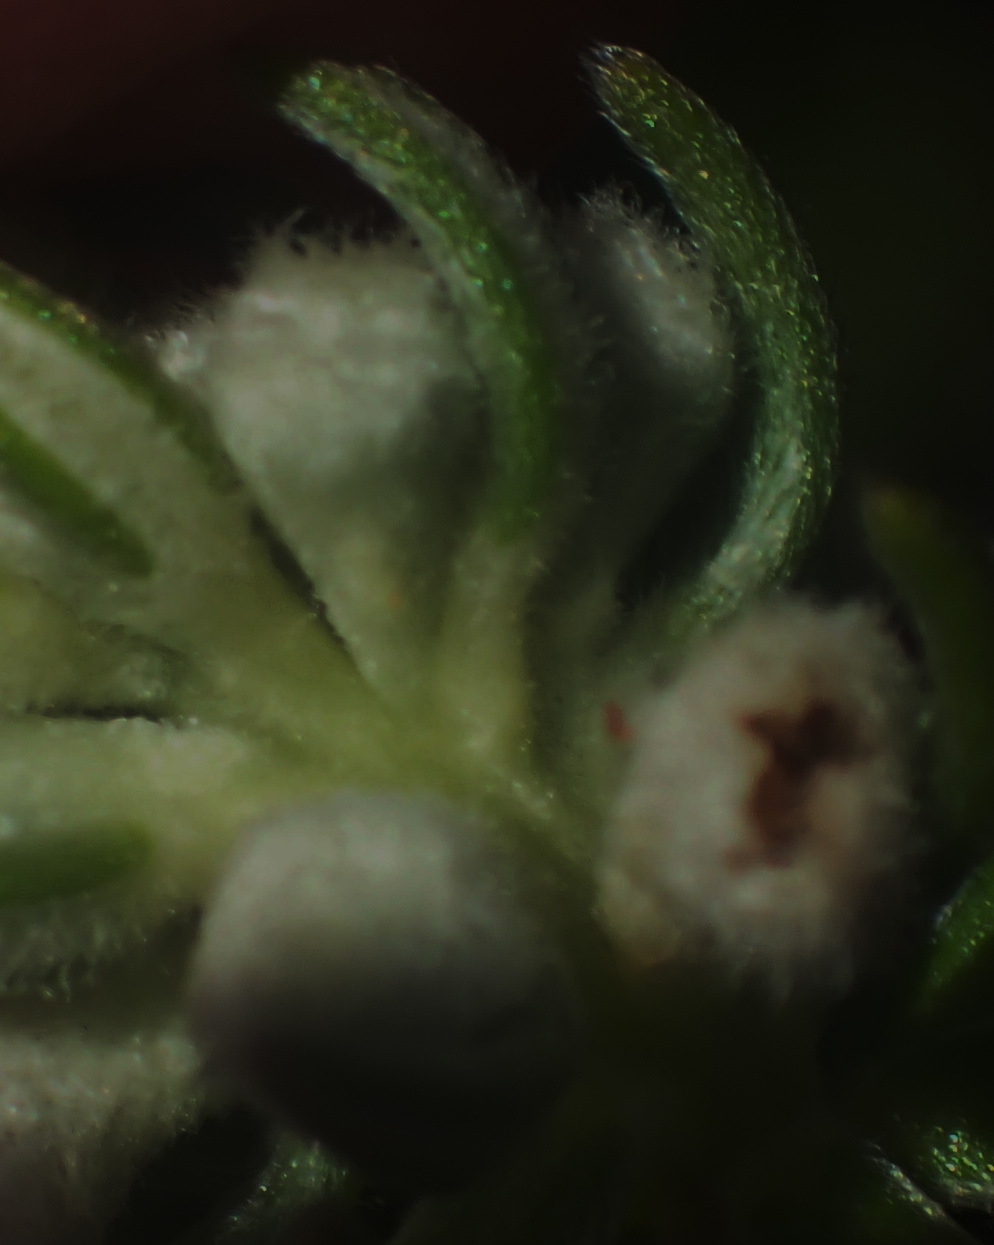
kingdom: Plantae
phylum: Tracheophyta
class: Magnoliopsida
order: Rosales
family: Rhamnaceae
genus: Phylica
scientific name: Phylica axillaris
